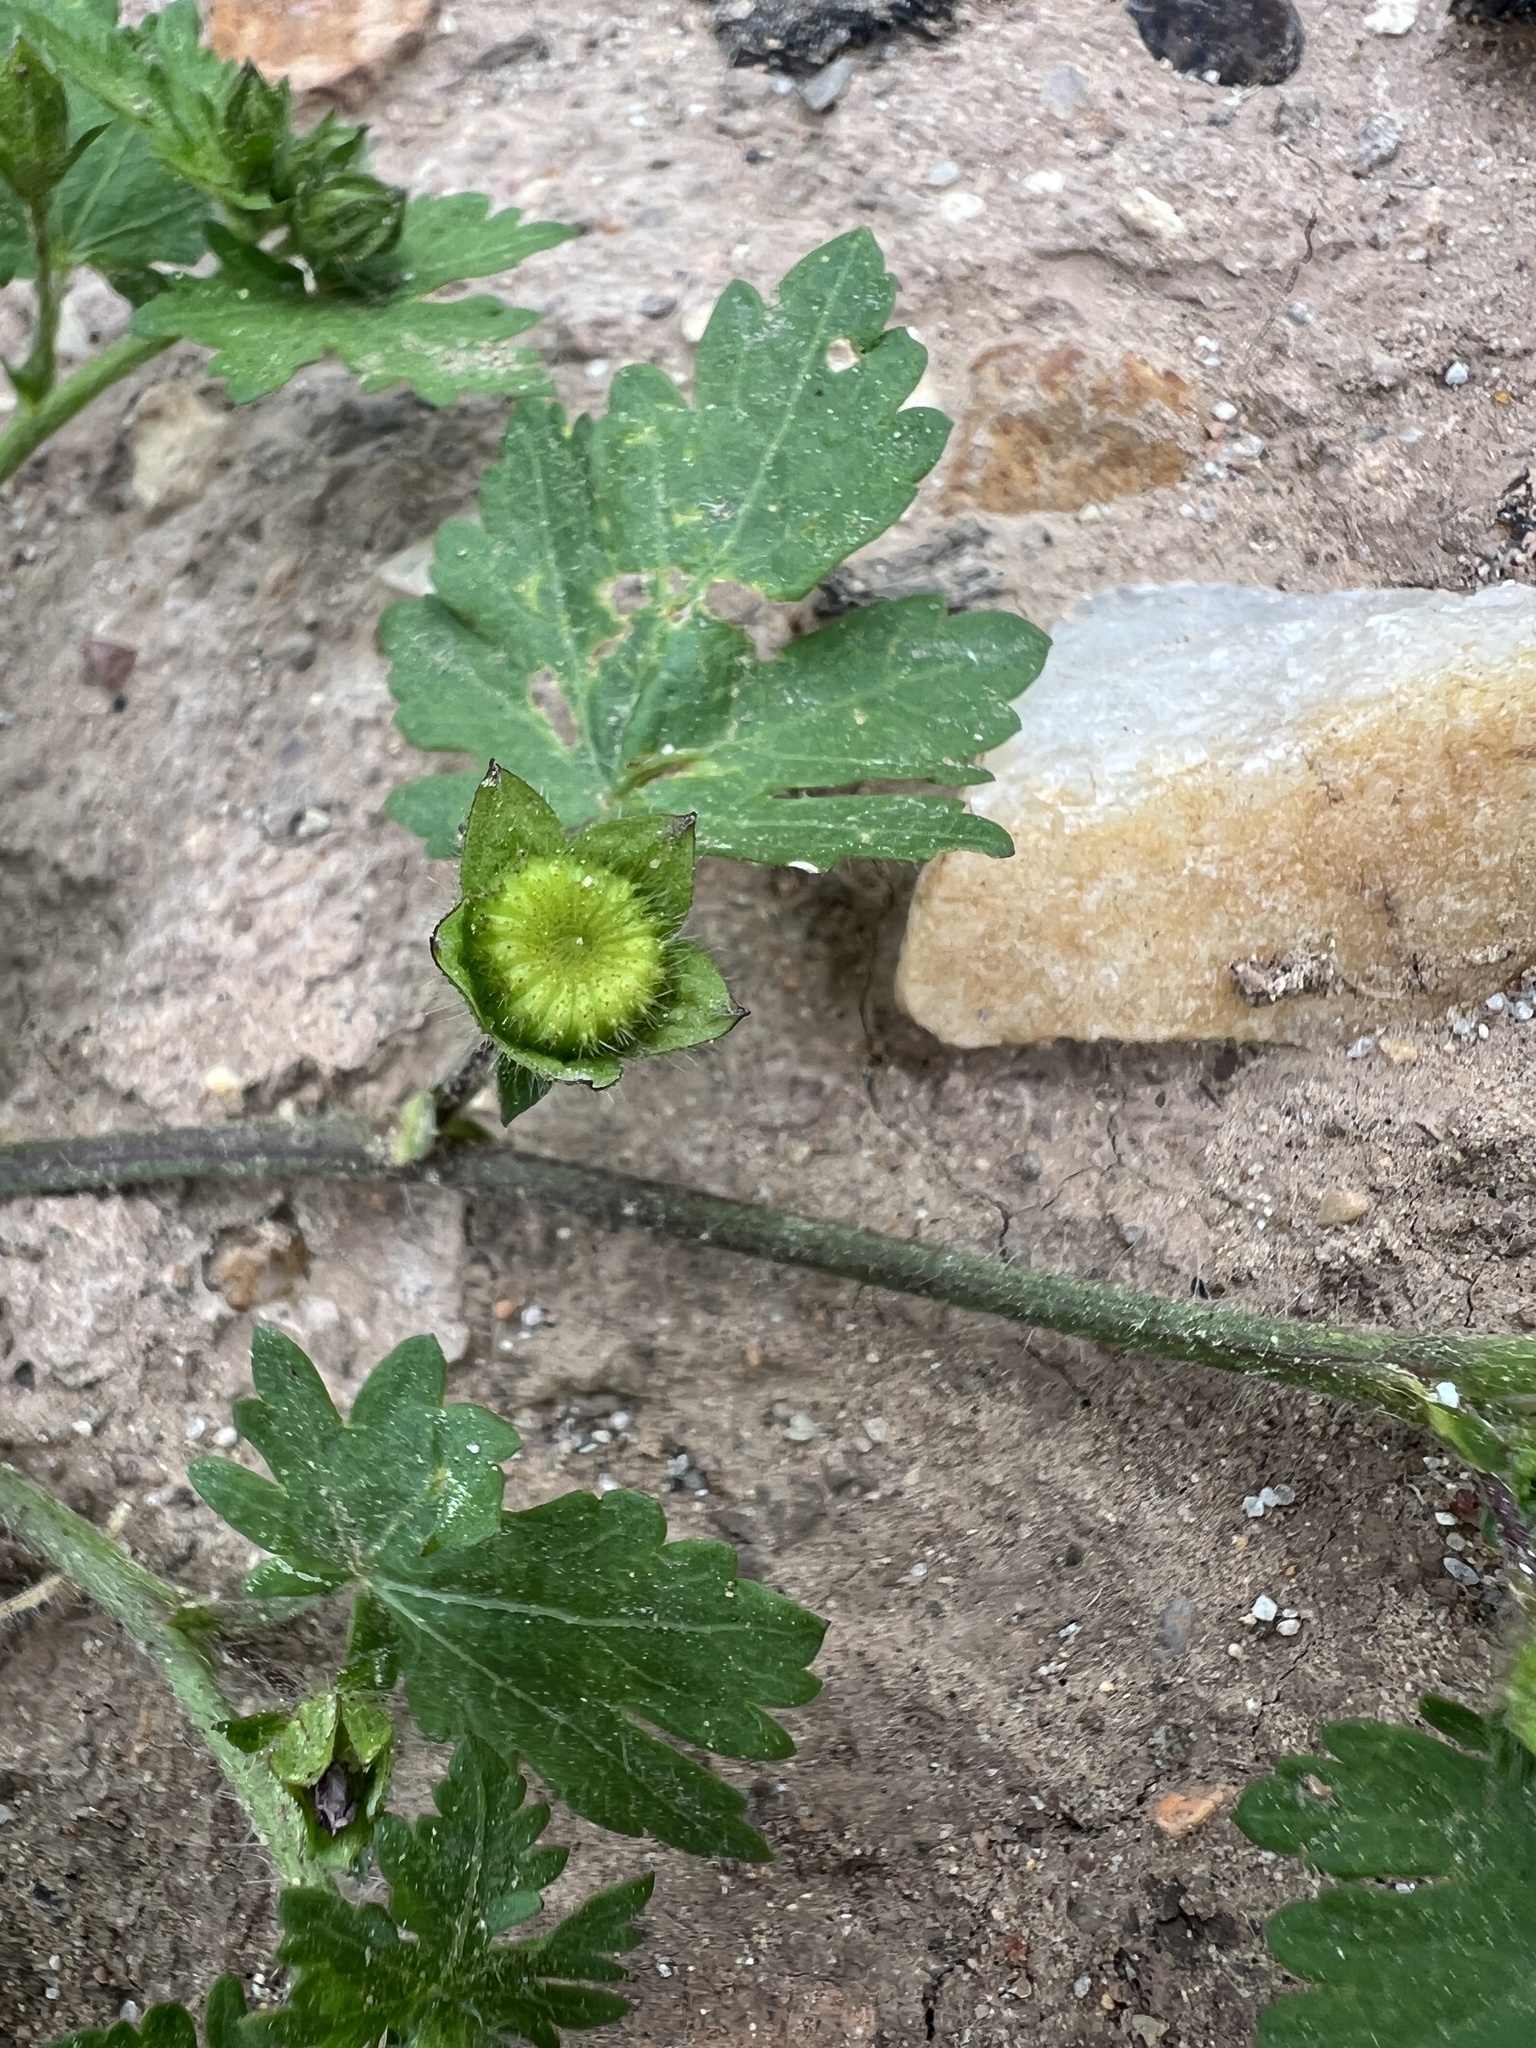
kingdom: Plantae
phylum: Tracheophyta
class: Magnoliopsida
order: Malvales
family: Malvaceae
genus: Modiola
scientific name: Modiola caroliniana
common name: Carolina bristlemallow
